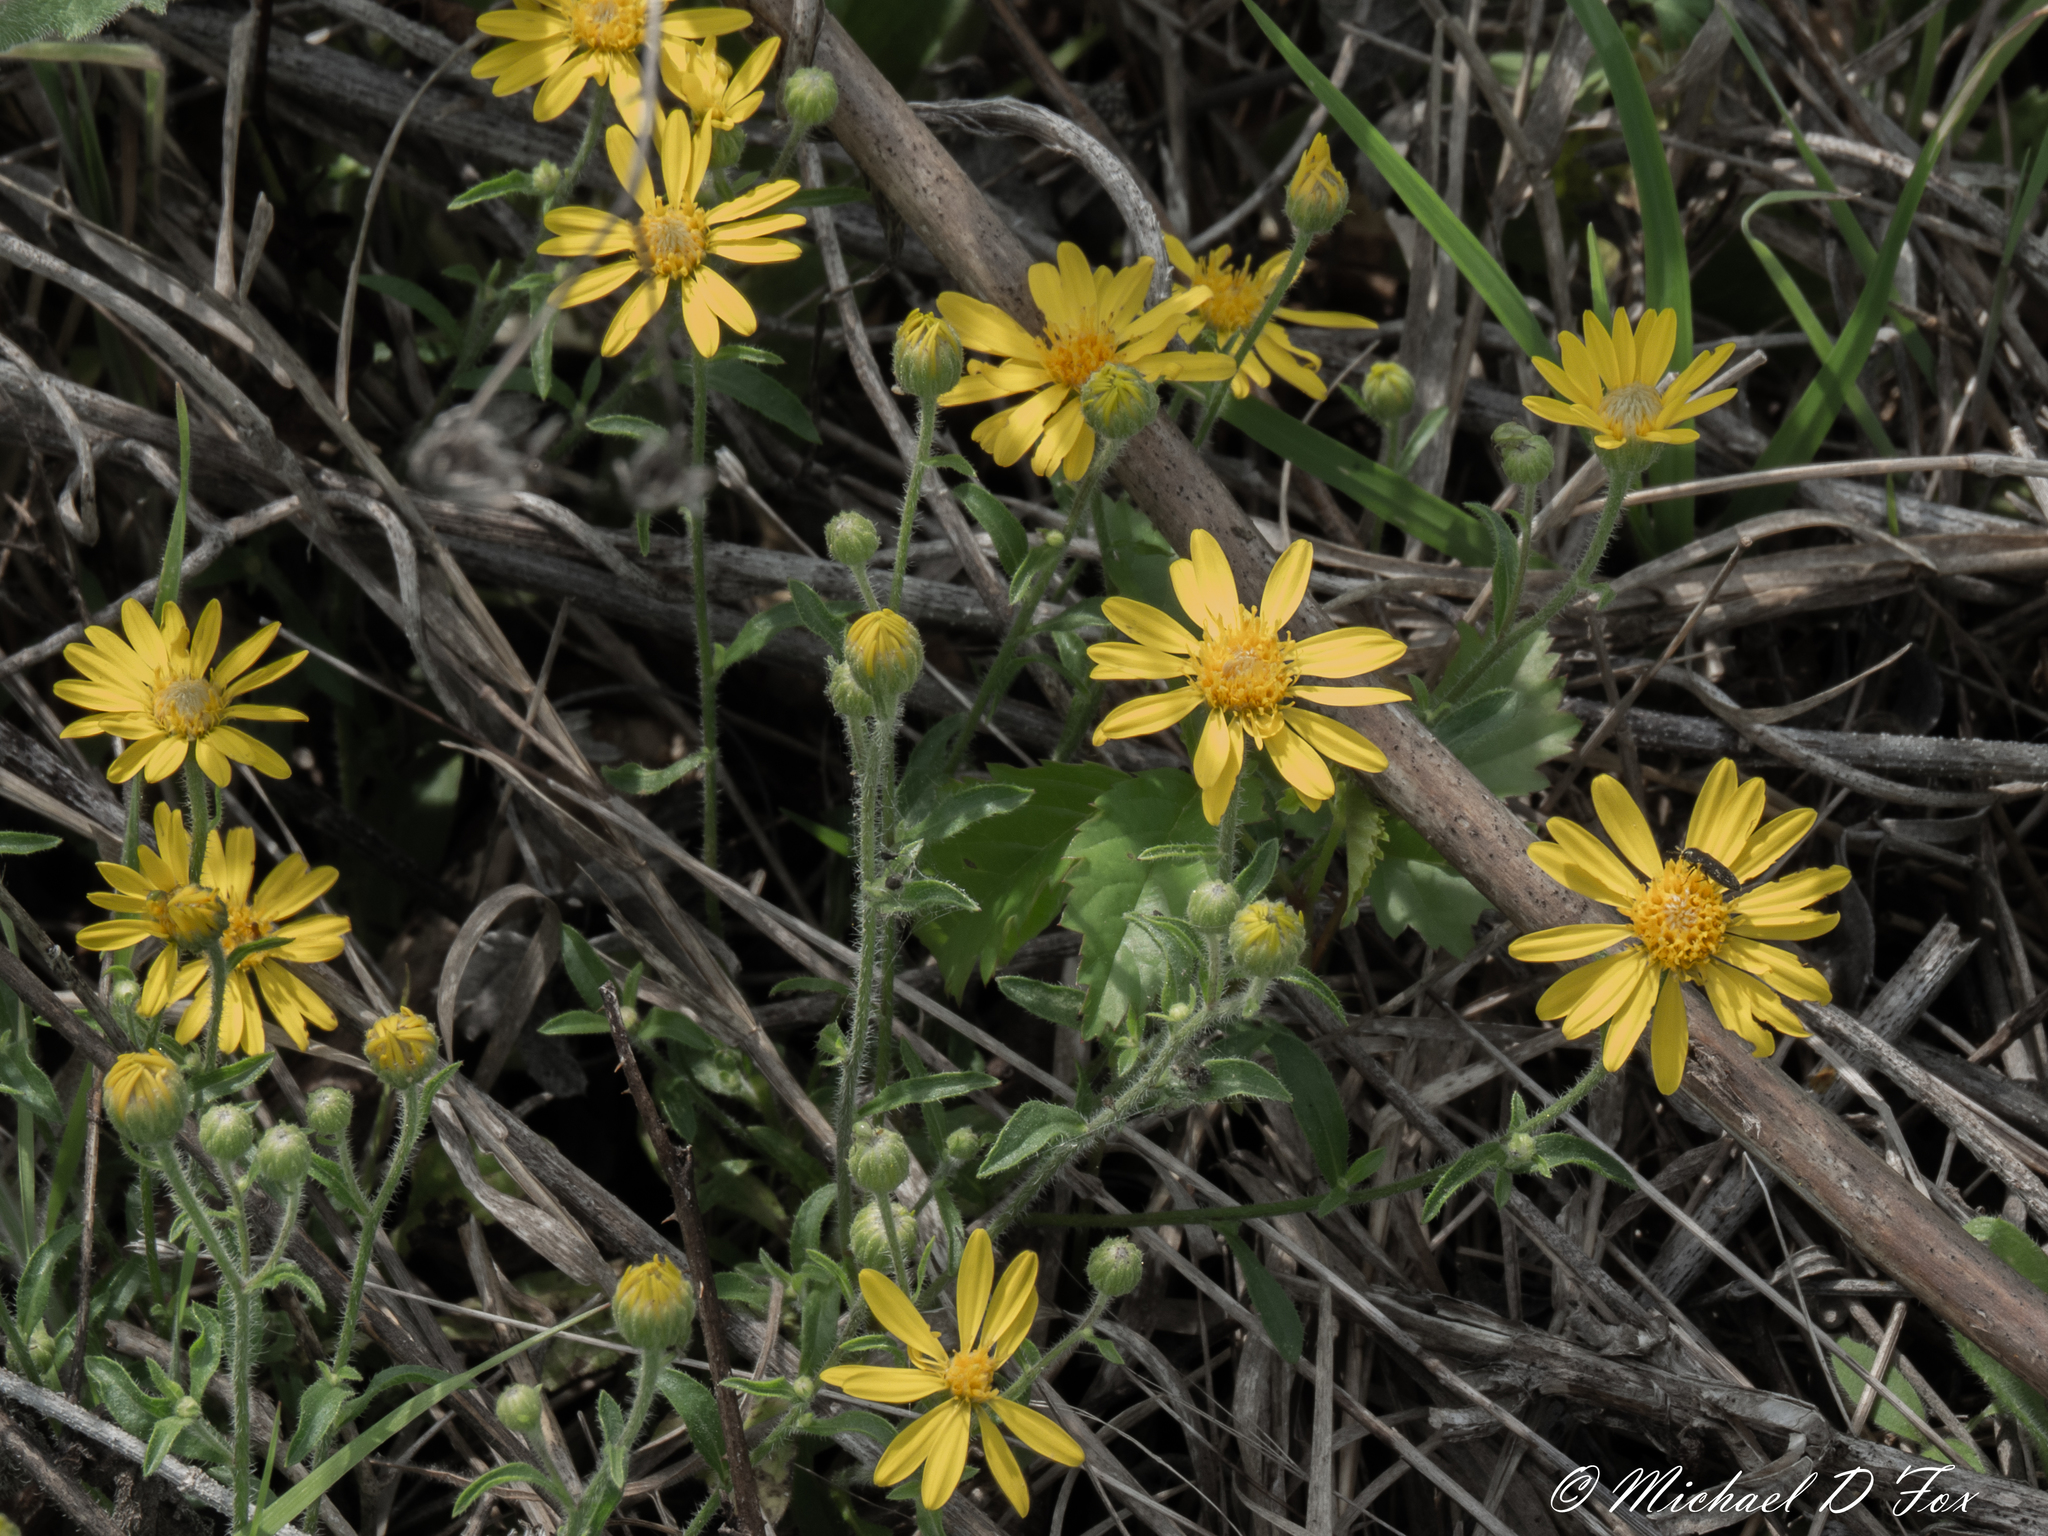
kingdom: Plantae
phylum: Tracheophyta
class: Magnoliopsida
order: Asterales
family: Asteraceae
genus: Heterotheca
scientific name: Heterotheca subaxillaris
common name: Camphorweed
